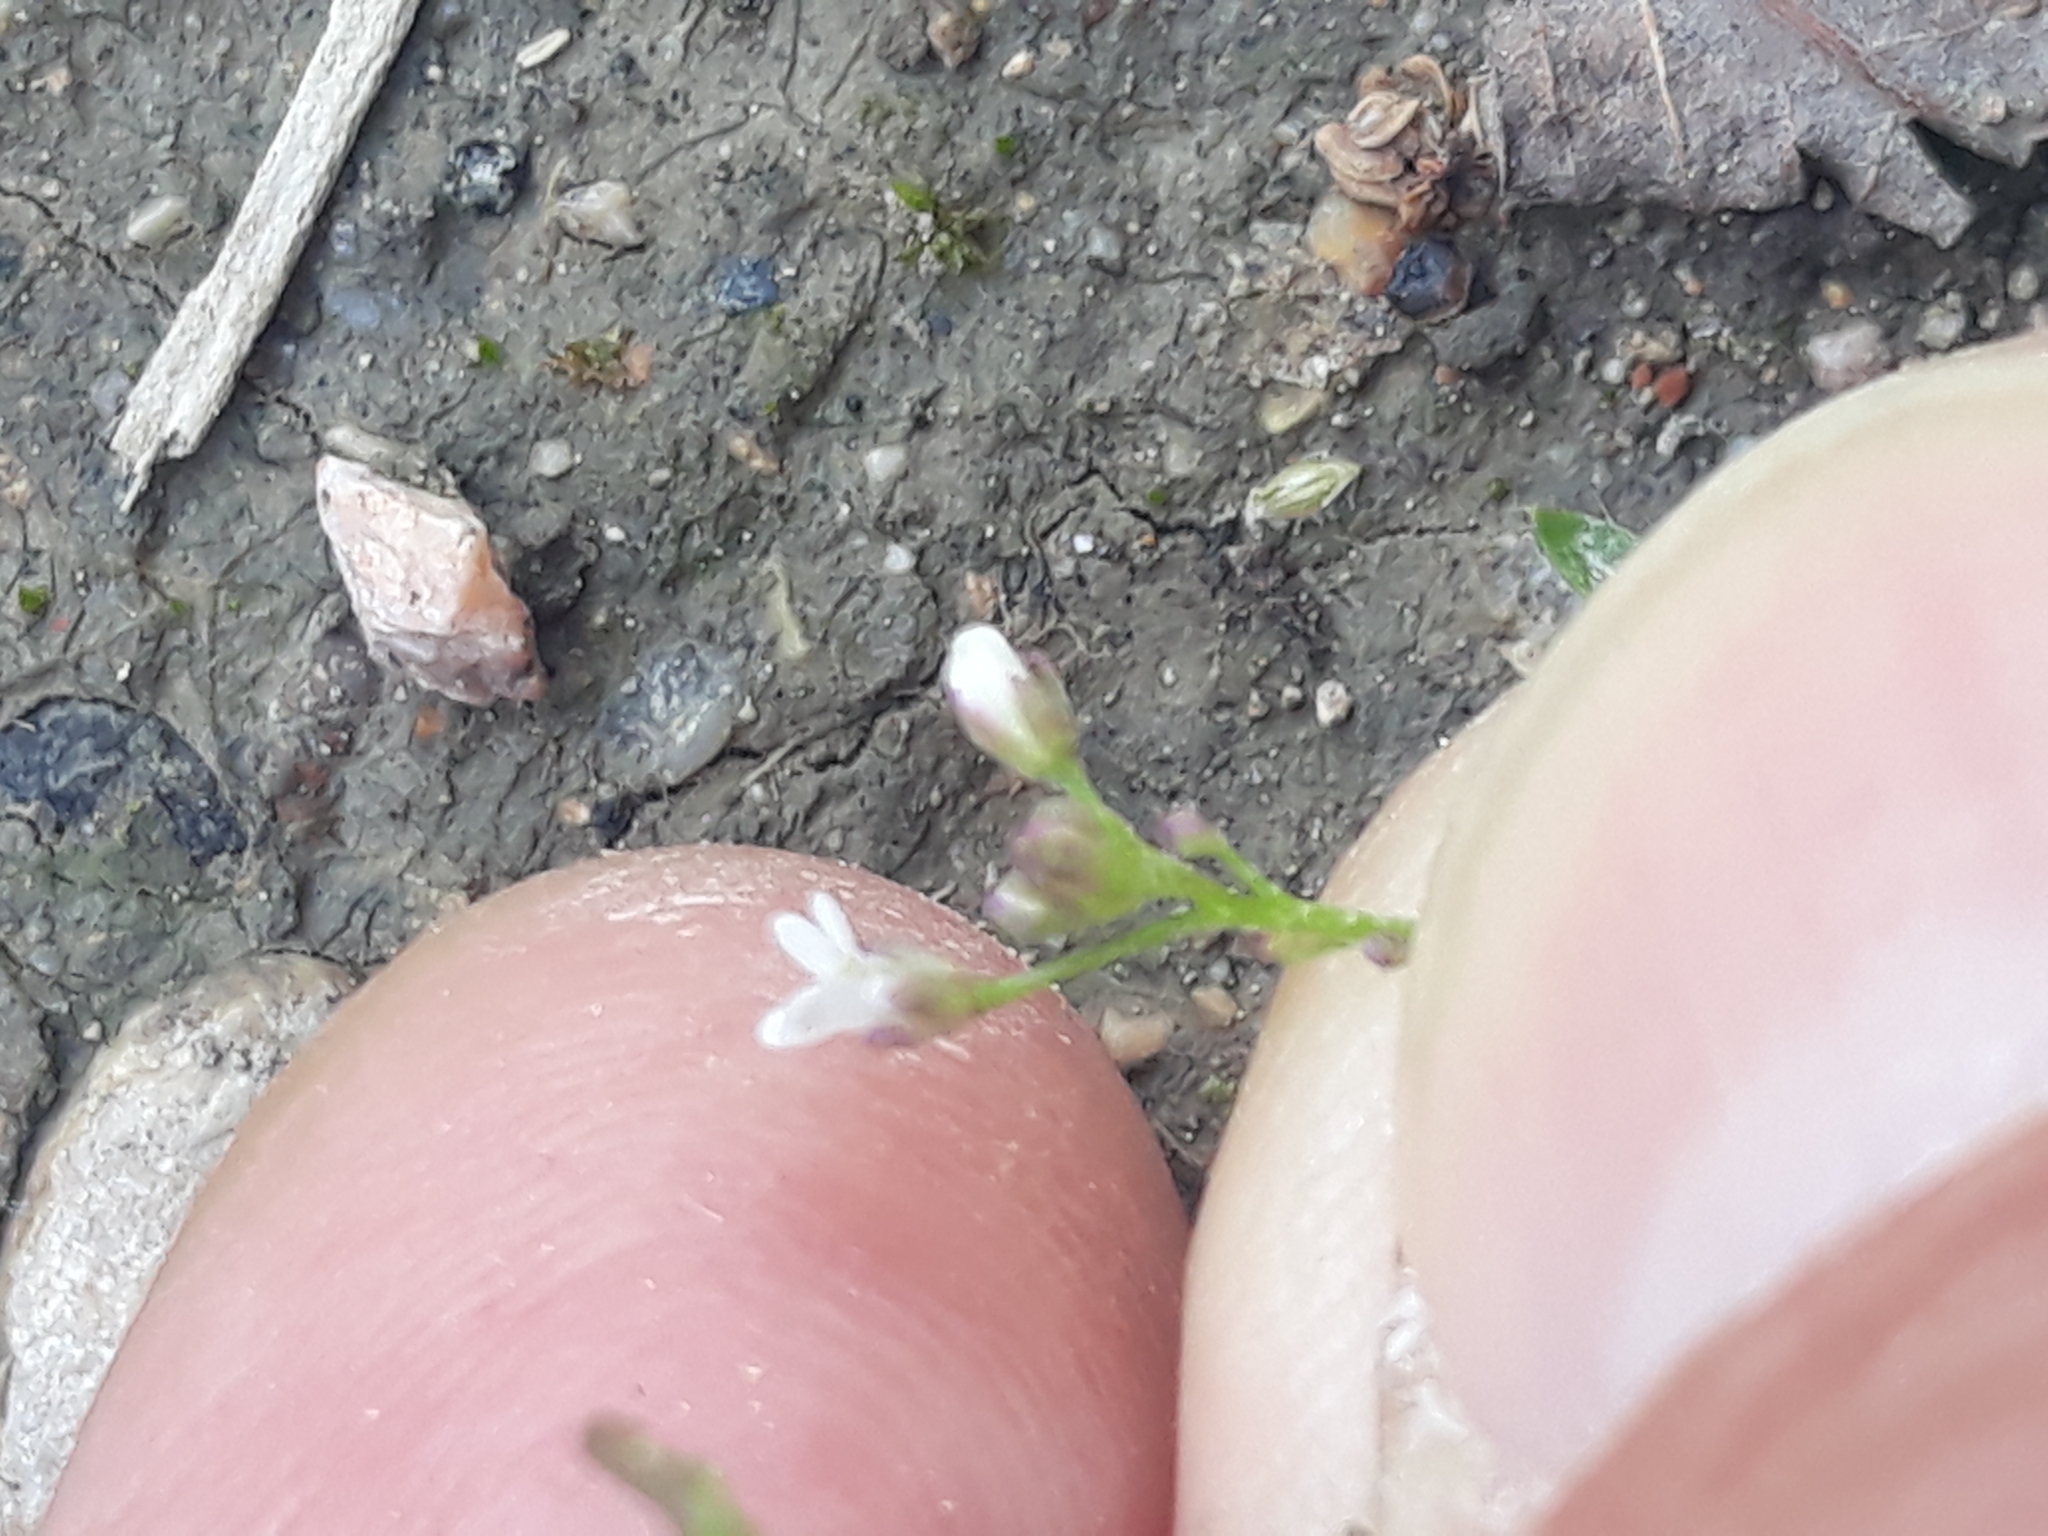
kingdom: Plantae
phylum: Tracheophyta
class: Magnoliopsida
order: Brassicales
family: Brassicaceae
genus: Capsella
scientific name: Capsella bursa-pastoris
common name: Shepherd's purse
